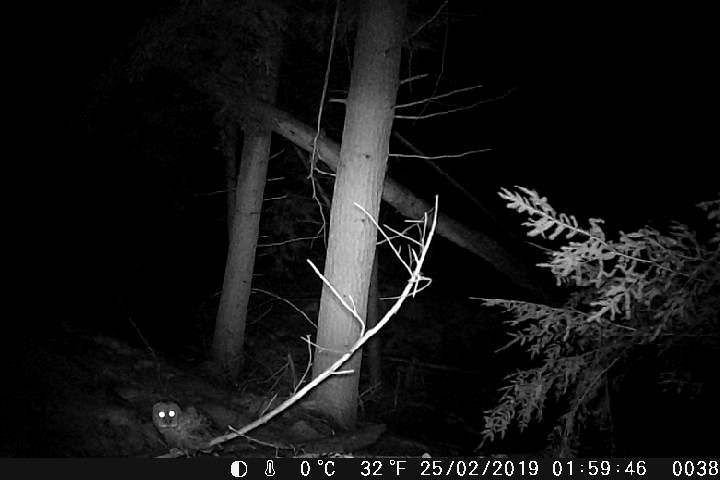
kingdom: Animalia
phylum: Chordata
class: Aves
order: Strigiformes
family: Strigidae
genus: Strix
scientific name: Strix varia
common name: Barred owl
